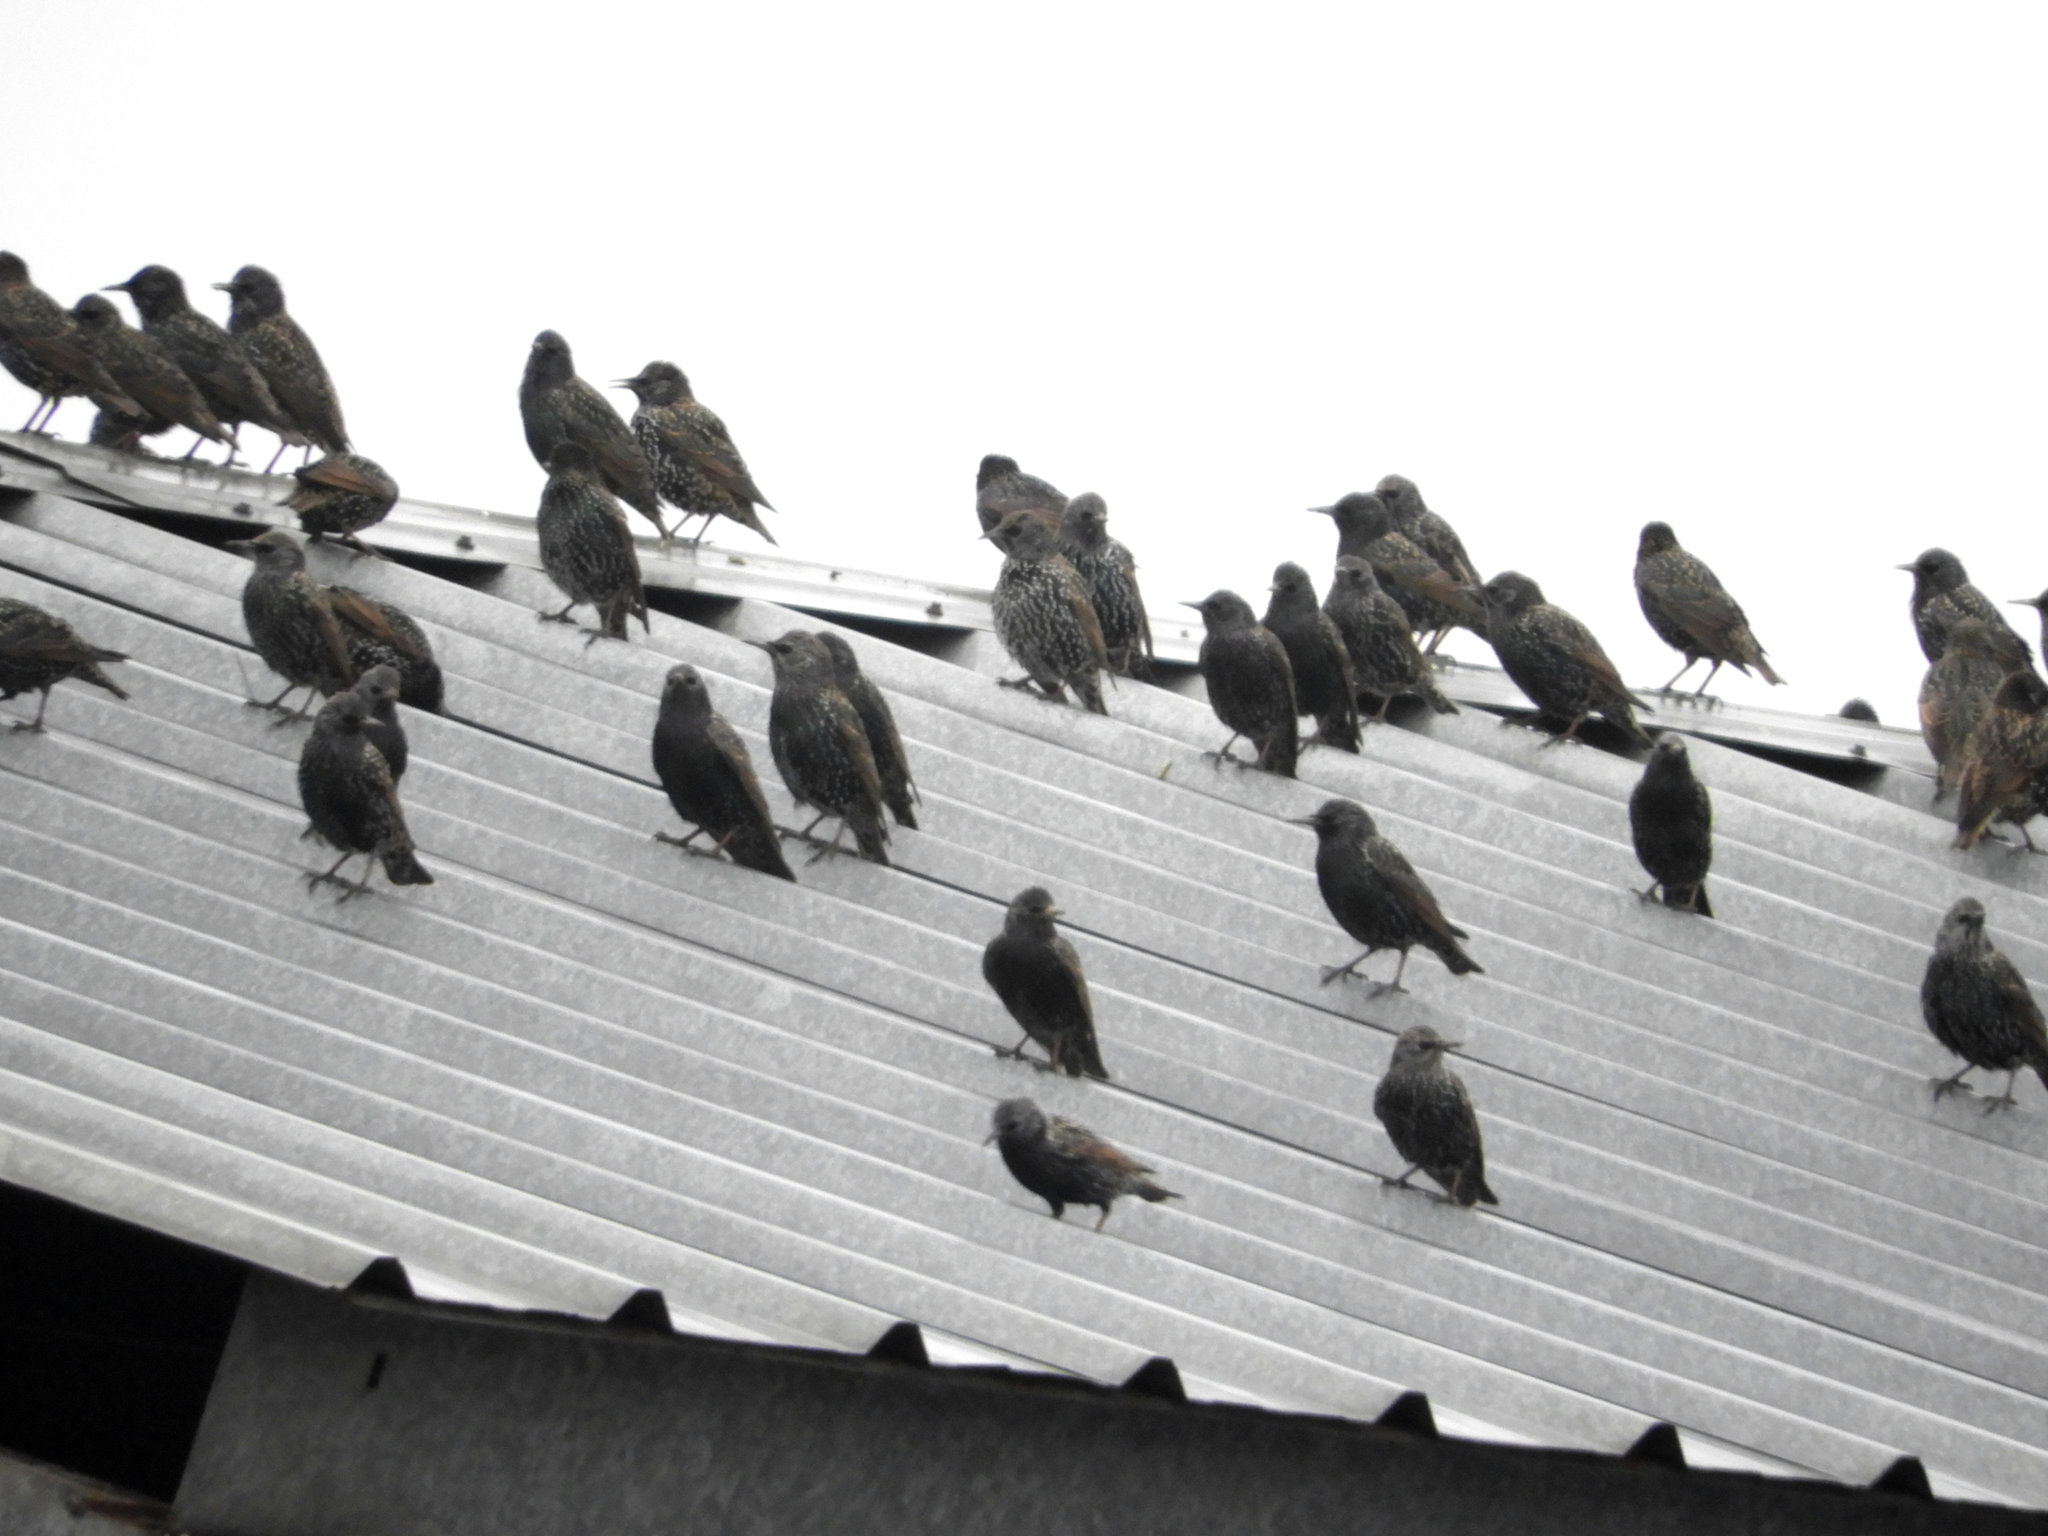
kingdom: Animalia
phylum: Chordata
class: Aves
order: Passeriformes
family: Sturnidae
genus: Sturnus
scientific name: Sturnus vulgaris
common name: Common starling
